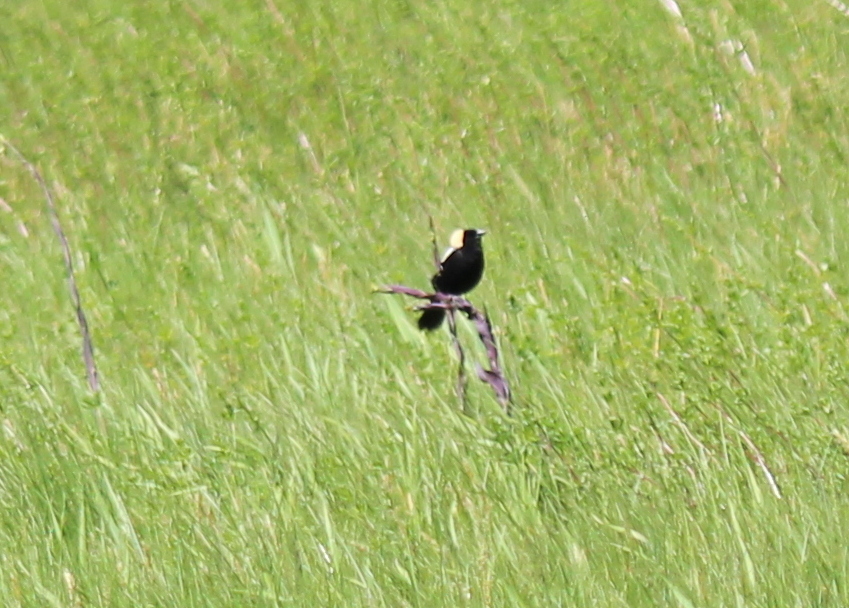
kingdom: Animalia
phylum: Chordata
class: Aves
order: Passeriformes
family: Icteridae
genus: Dolichonyx
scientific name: Dolichonyx oryzivorus
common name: Bobolink
